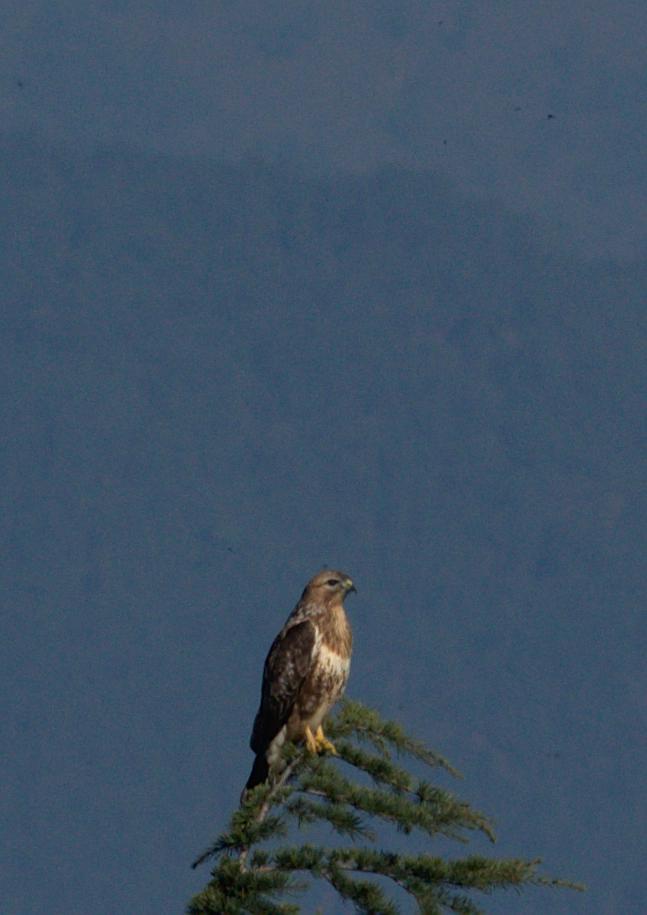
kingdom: Animalia
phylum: Chordata
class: Aves
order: Accipitriformes
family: Accipitridae
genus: Buteo
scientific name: Buteo refectus
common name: Himalayan buzzard
